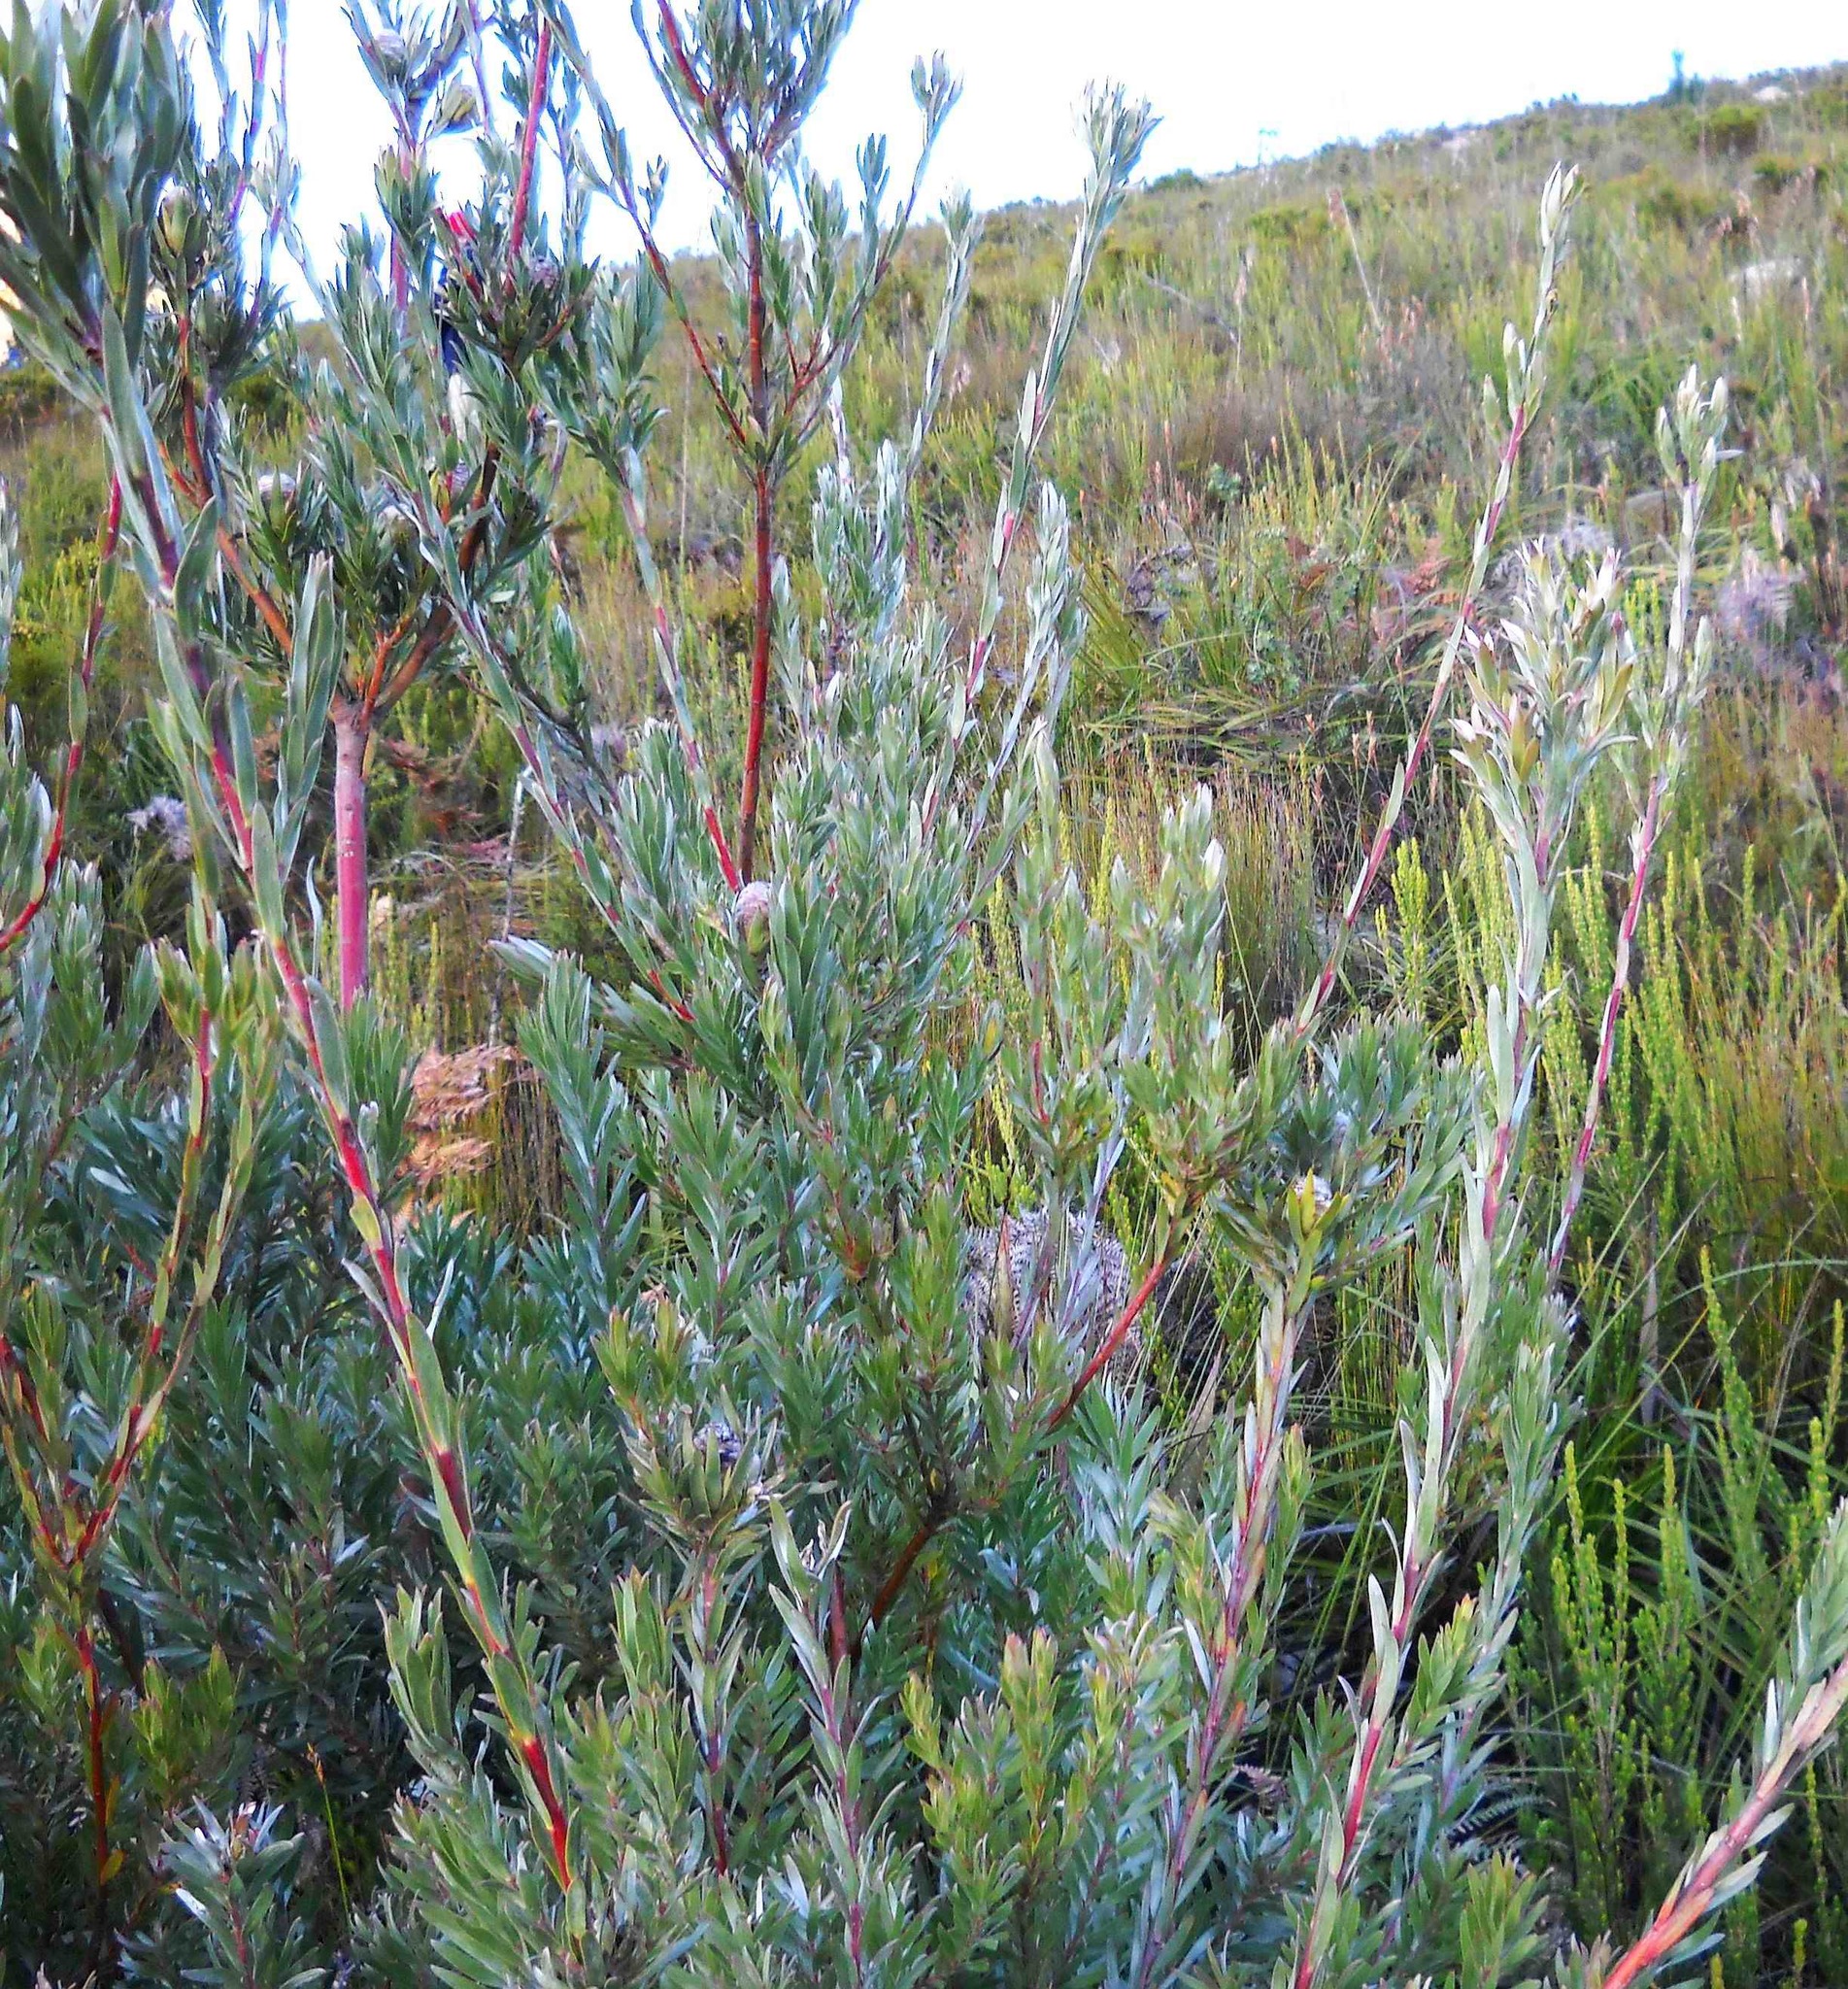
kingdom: Plantae
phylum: Tracheophyta
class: Magnoliopsida
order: Proteales
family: Proteaceae
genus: Leucadendron
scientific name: Leucadendron uliginosum
